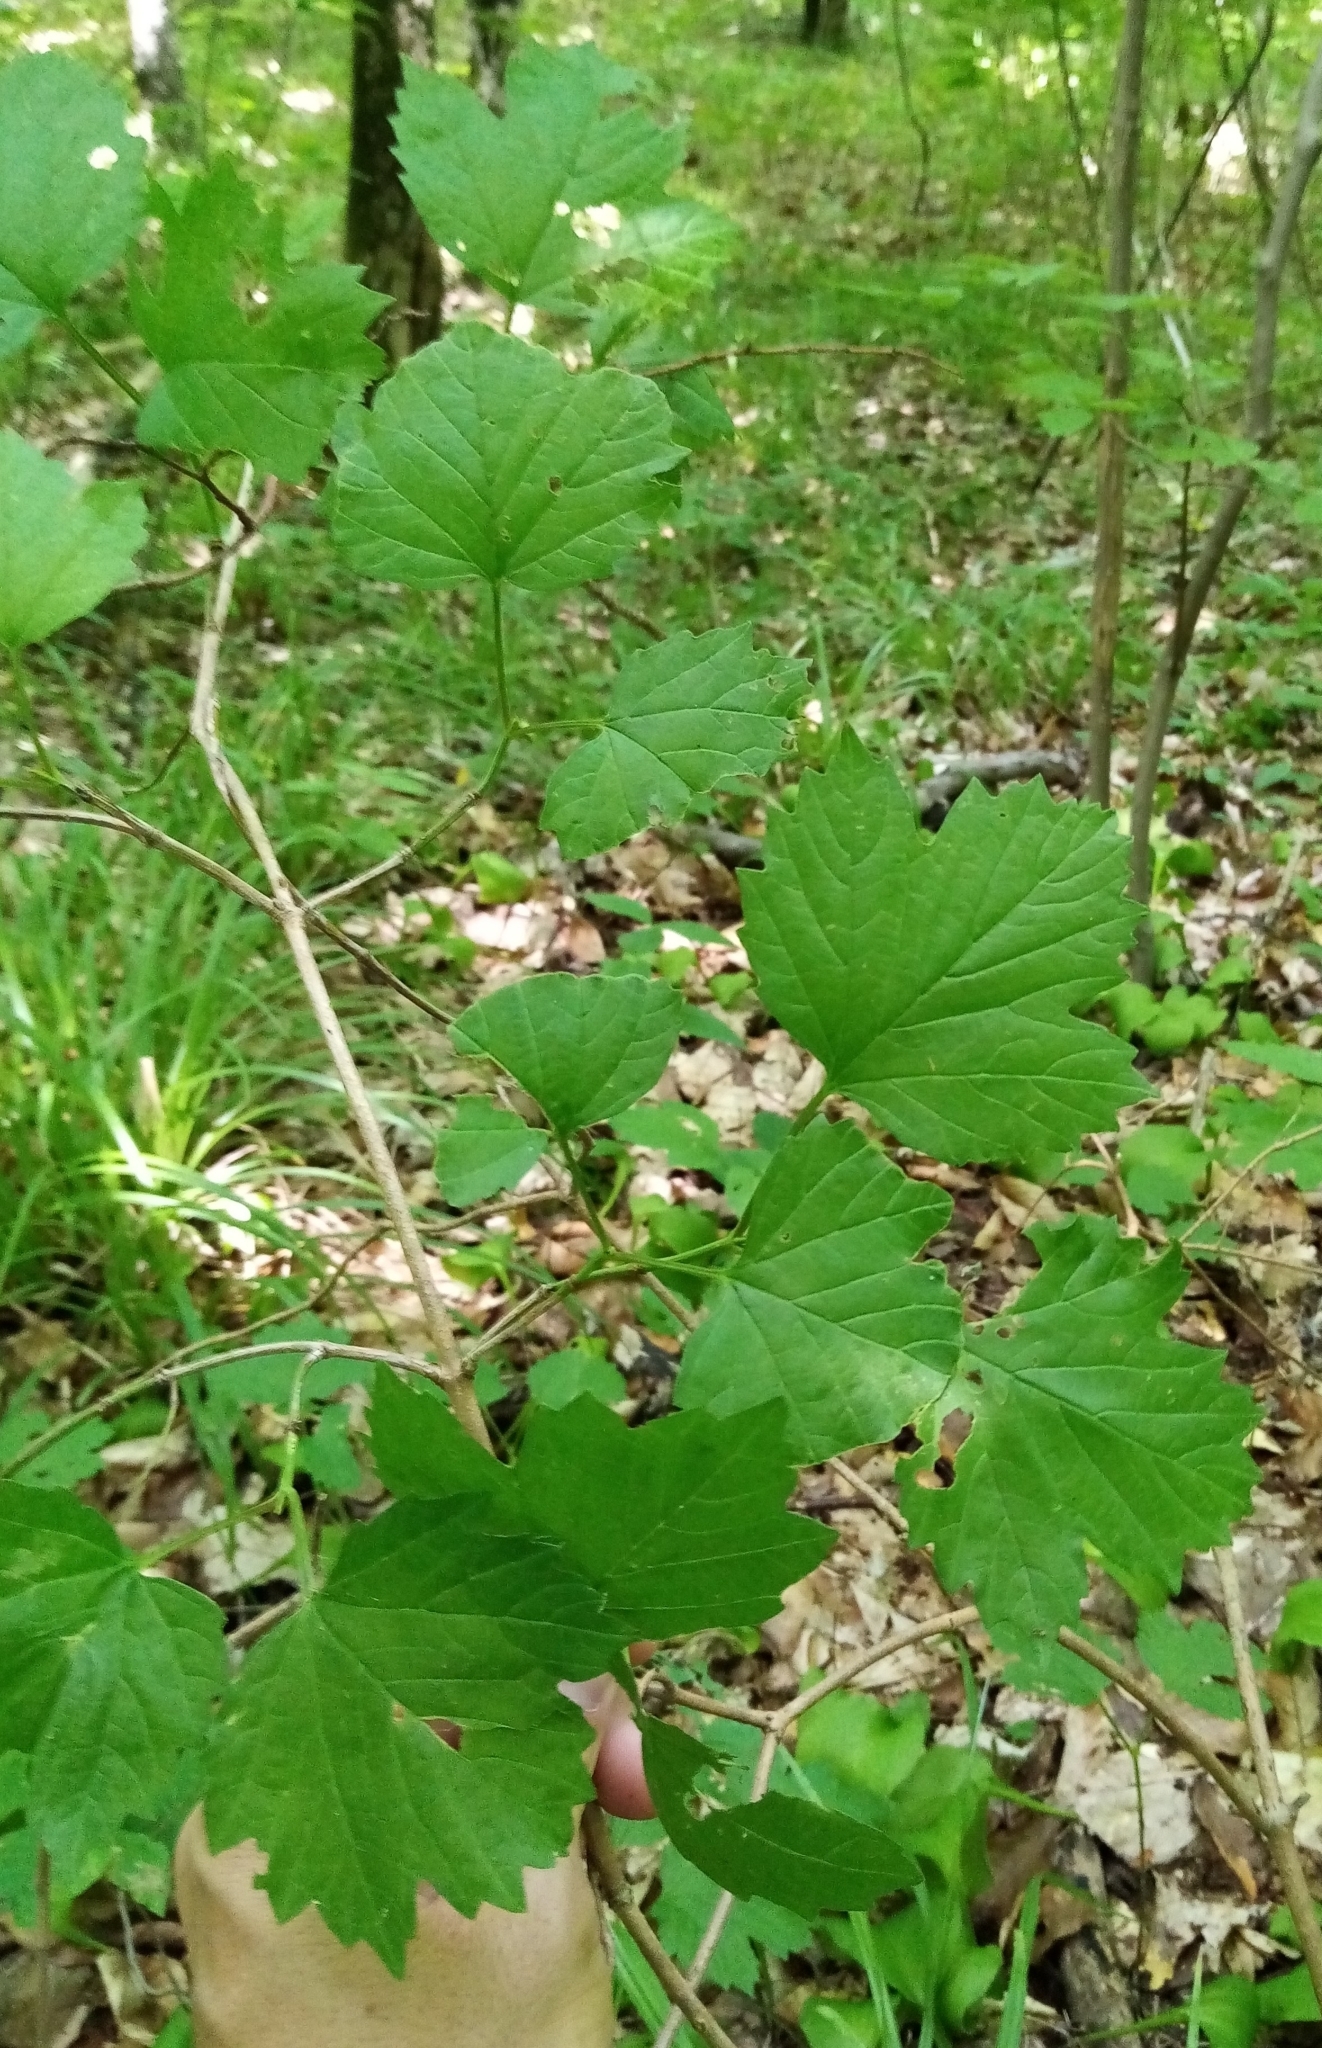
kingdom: Plantae
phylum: Tracheophyta
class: Magnoliopsida
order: Dipsacales
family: Viburnaceae
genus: Viburnum
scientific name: Viburnum opulus
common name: Guelder-rose
